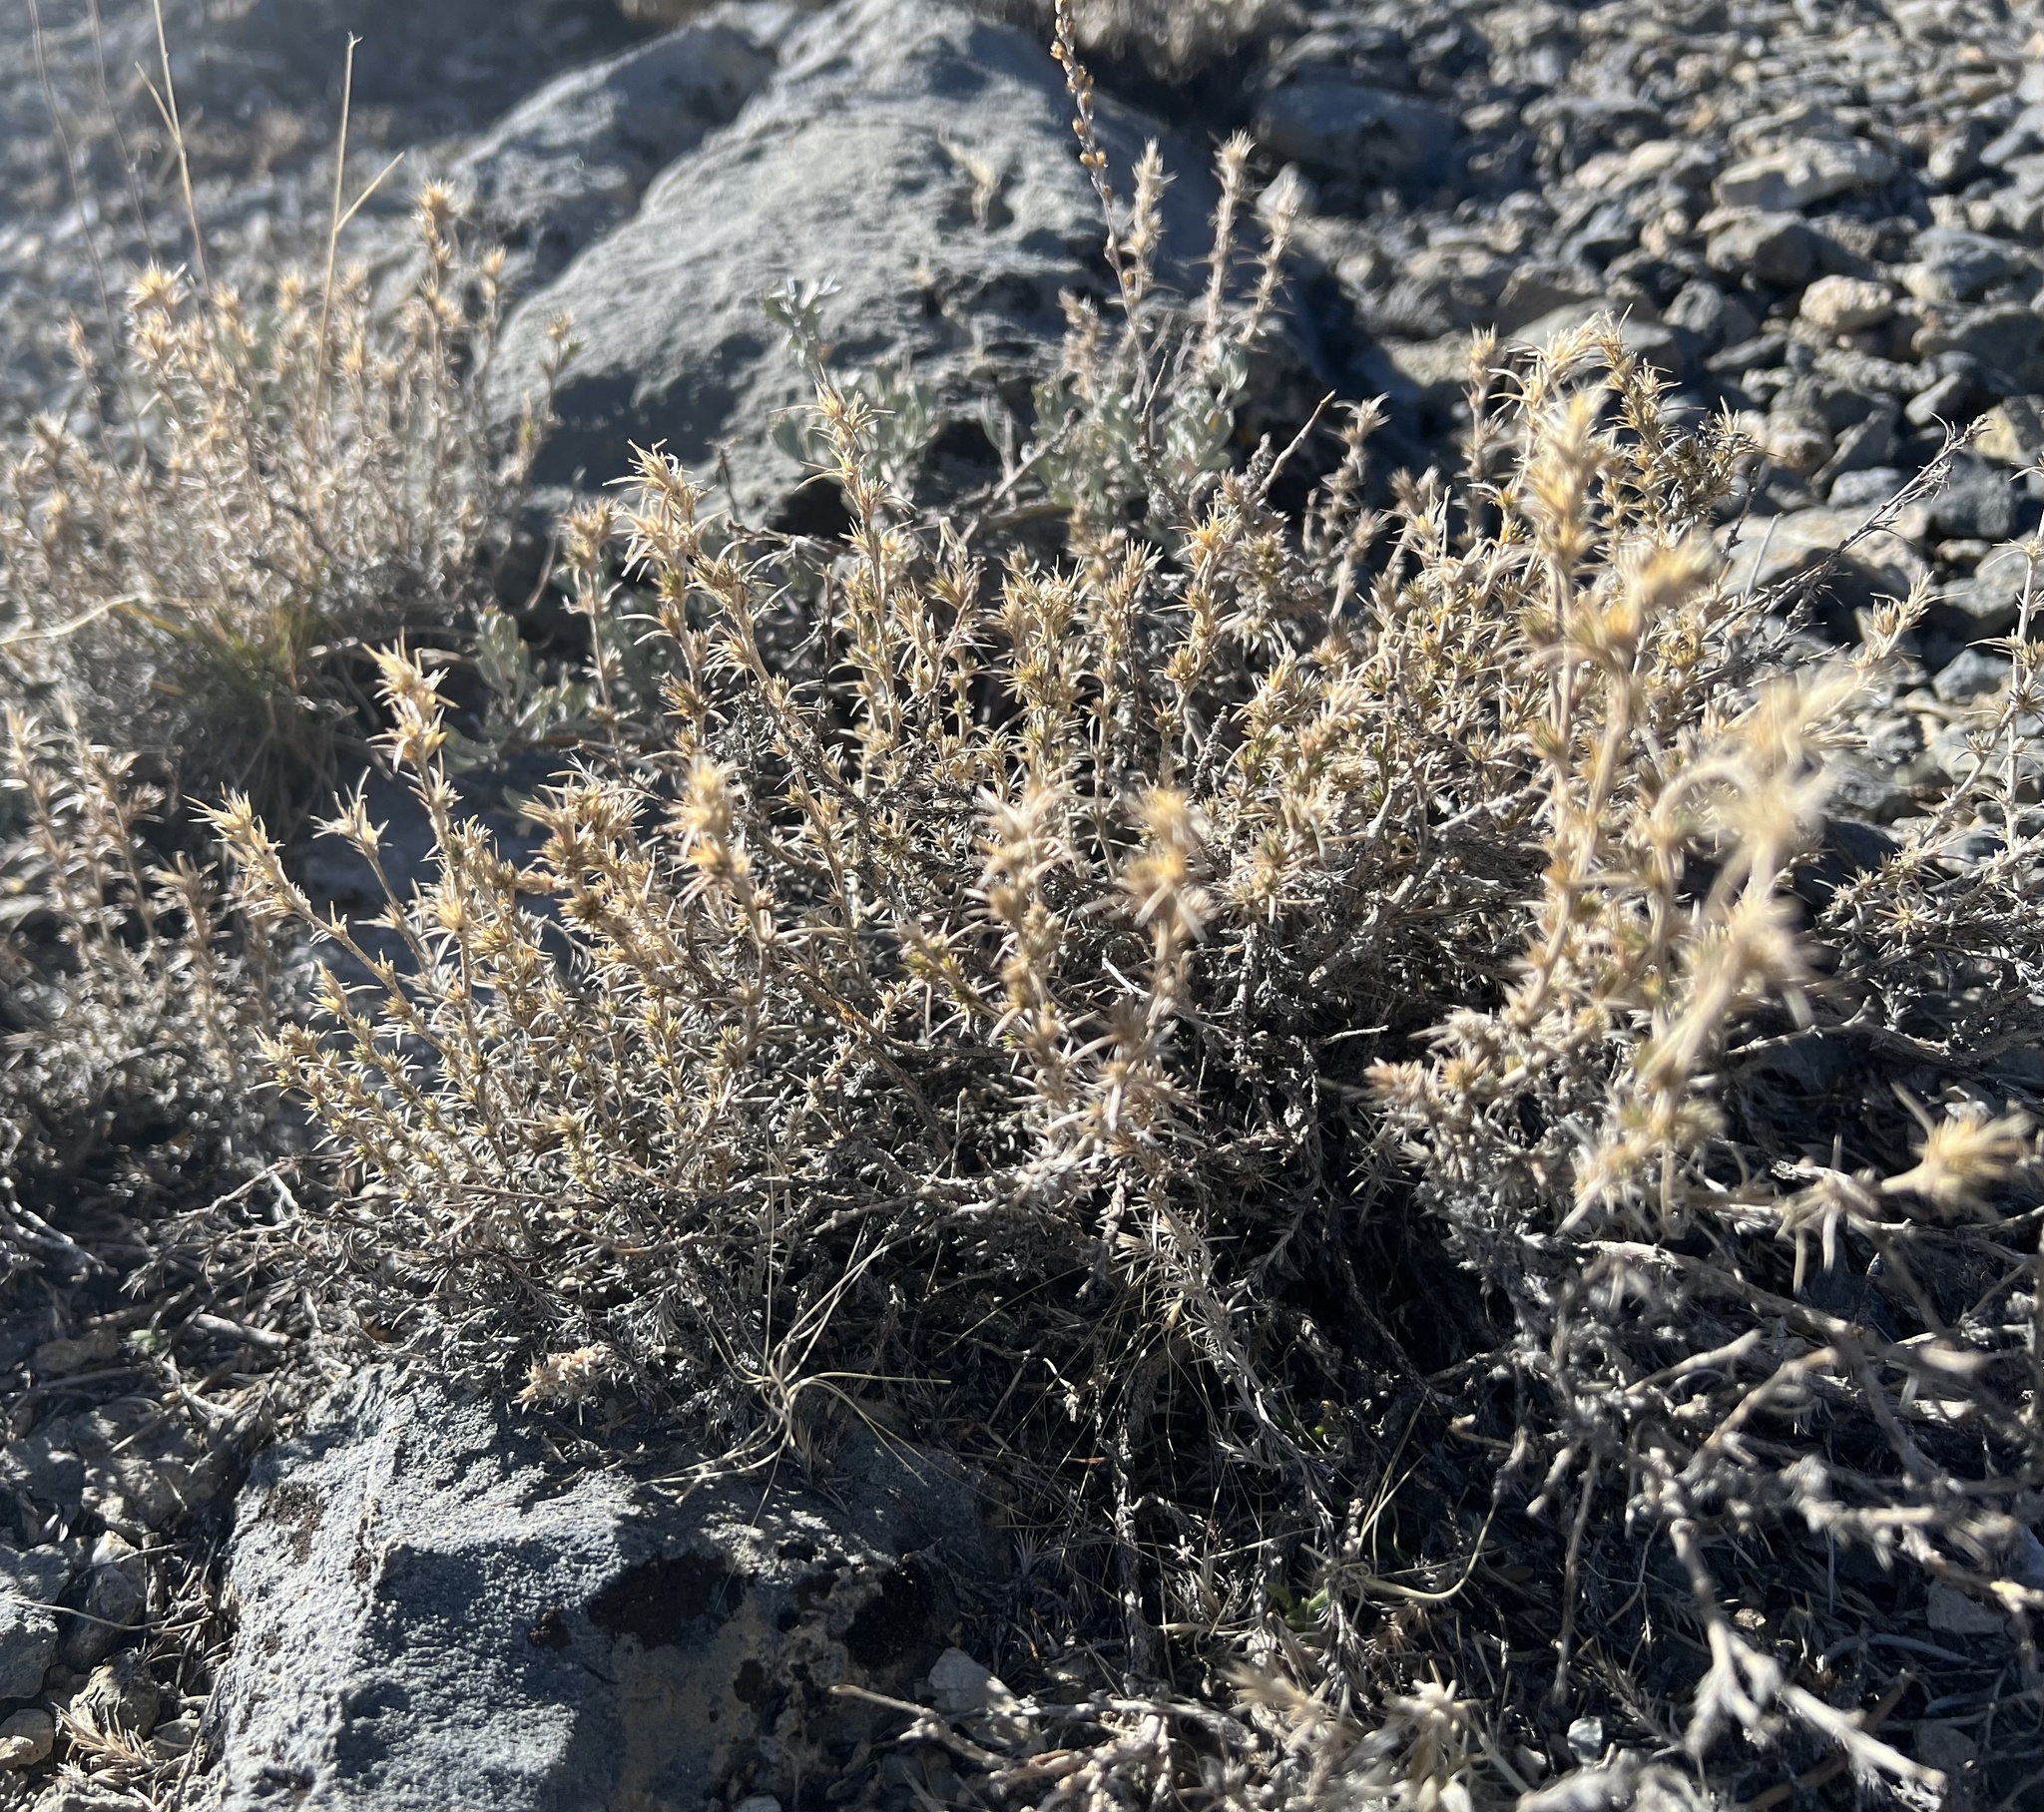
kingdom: Plantae
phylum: Tracheophyta
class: Magnoliopsida
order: Ericales
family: Polemoniaceae
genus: Linanthus
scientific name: Linanthus pungens
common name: Granite prickly phlox
